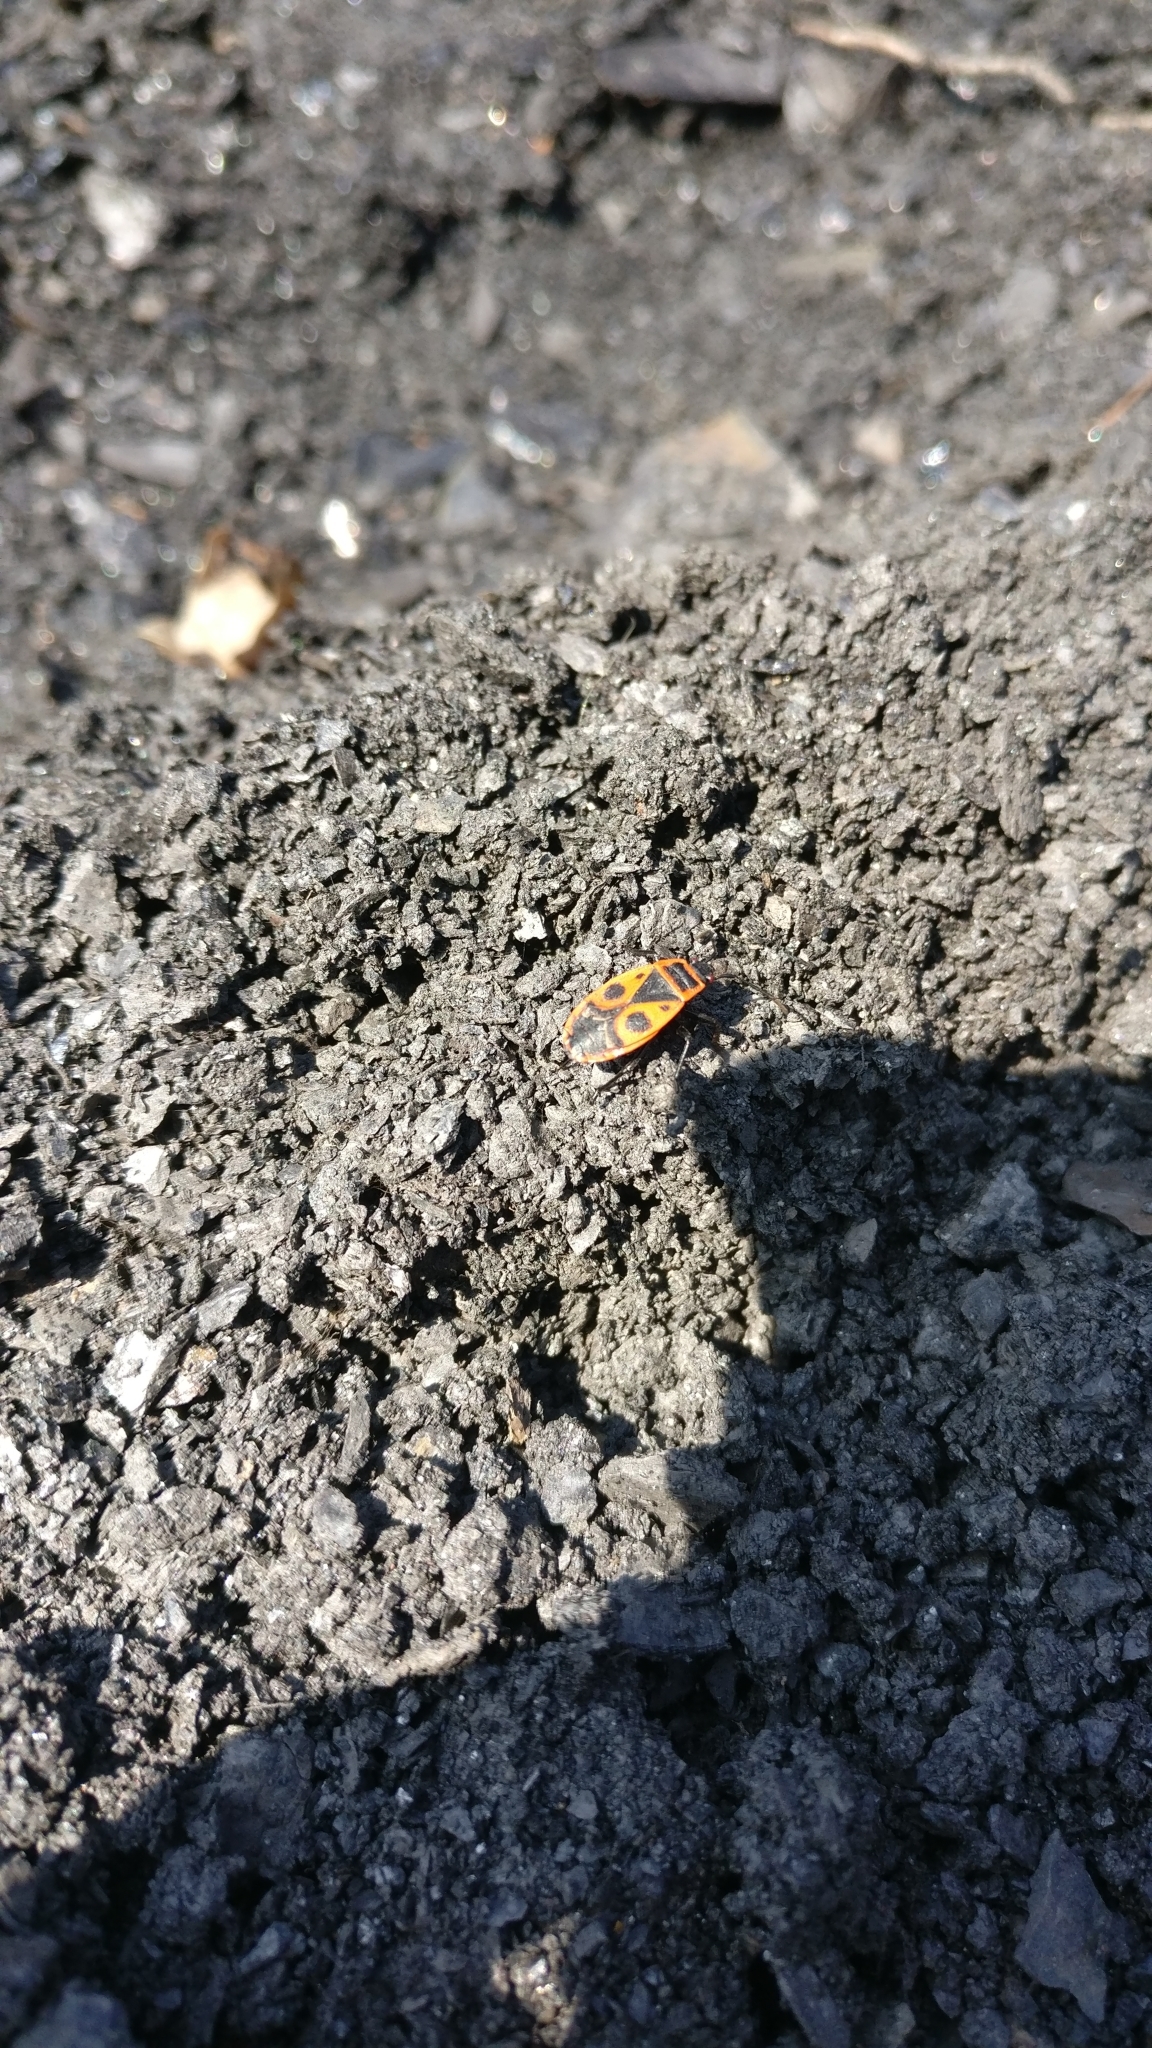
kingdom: Animalia
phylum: Arthropoda
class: Insecta
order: Hemiptera
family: Pyrrhocoridae
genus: Pyrrhocoris
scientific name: Pyrrhocoris apterus
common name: Firebug
